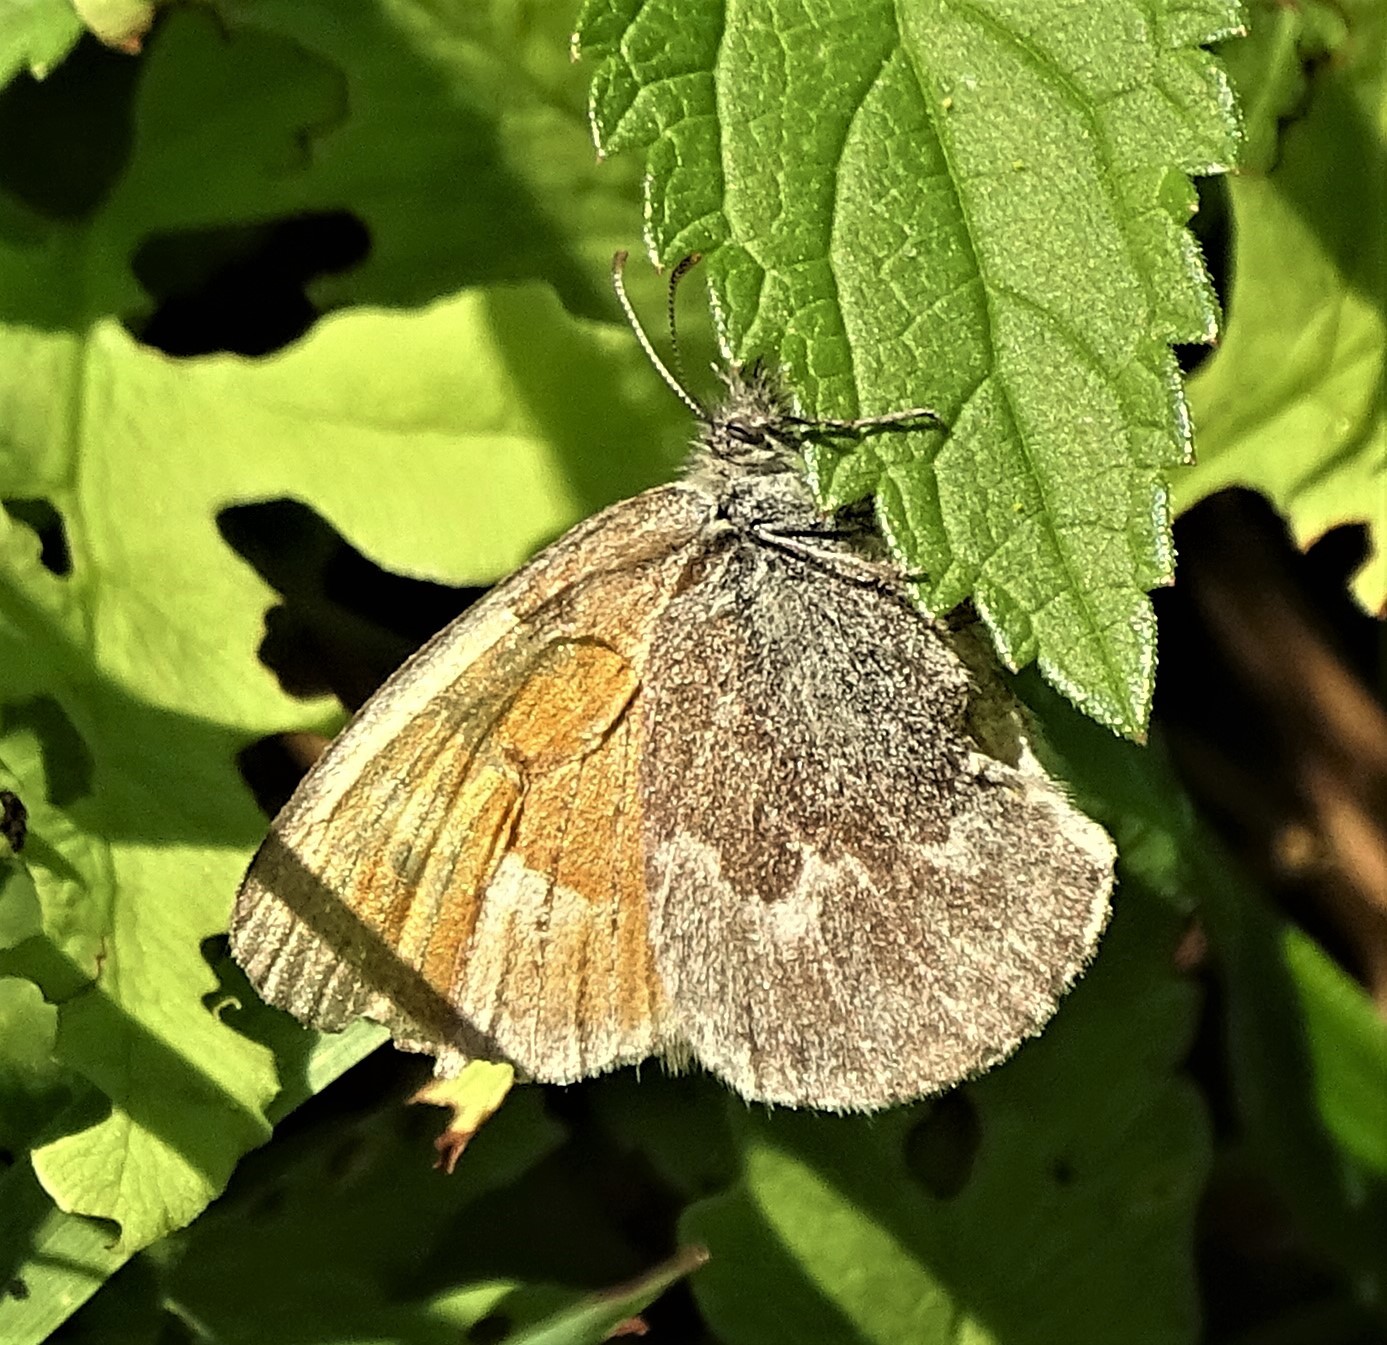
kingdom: Animalia
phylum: Arthropoda
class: Insecta
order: Lepidoptera
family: Nymphalidae
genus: Coenonympha
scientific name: Coenonympha california
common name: Common ringlet
